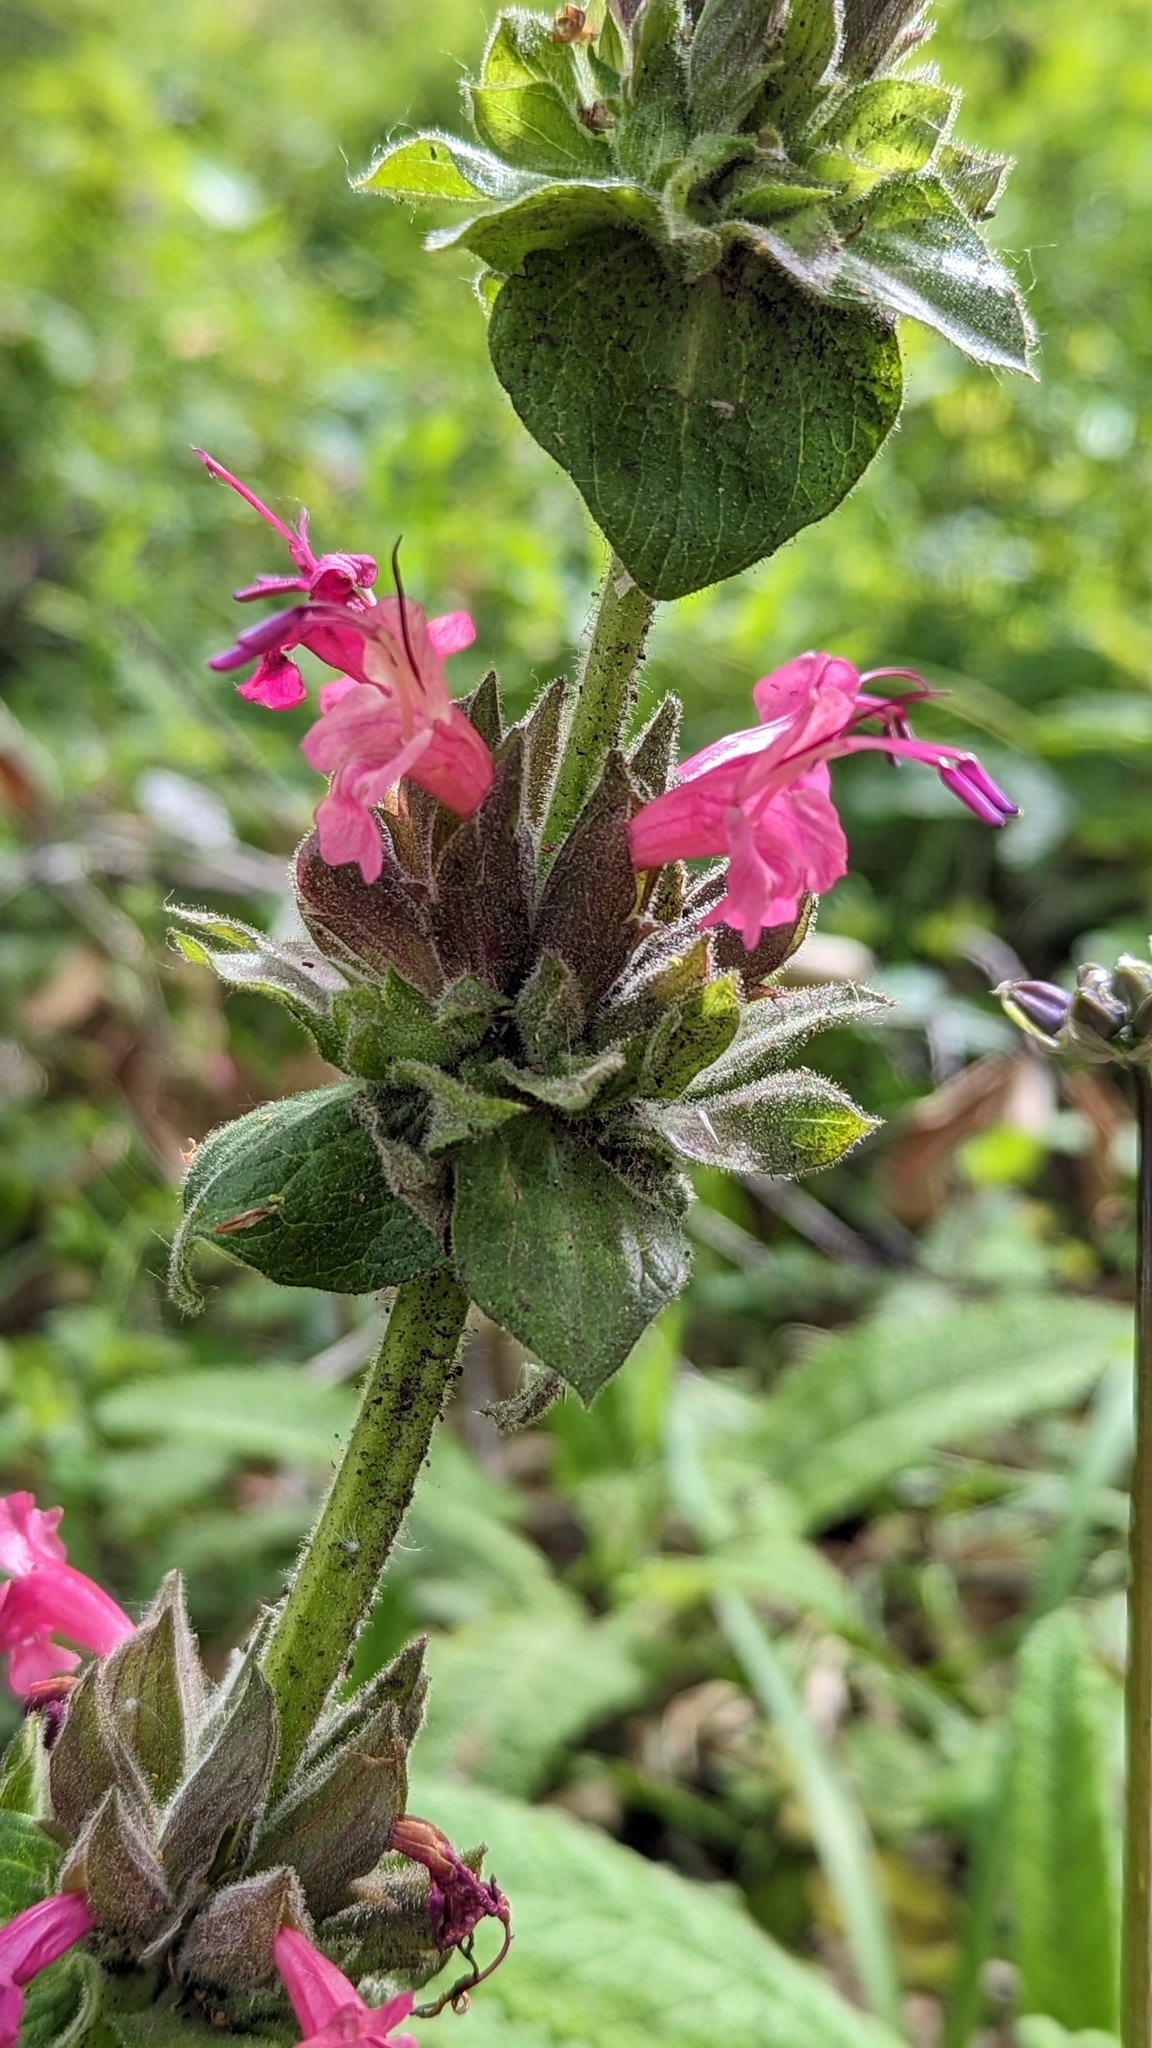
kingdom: Plantae
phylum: Tracheophyta
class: Magnoliopsida
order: Lamiales
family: Lamiaceae
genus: Salvia
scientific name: Salvia spathacea
